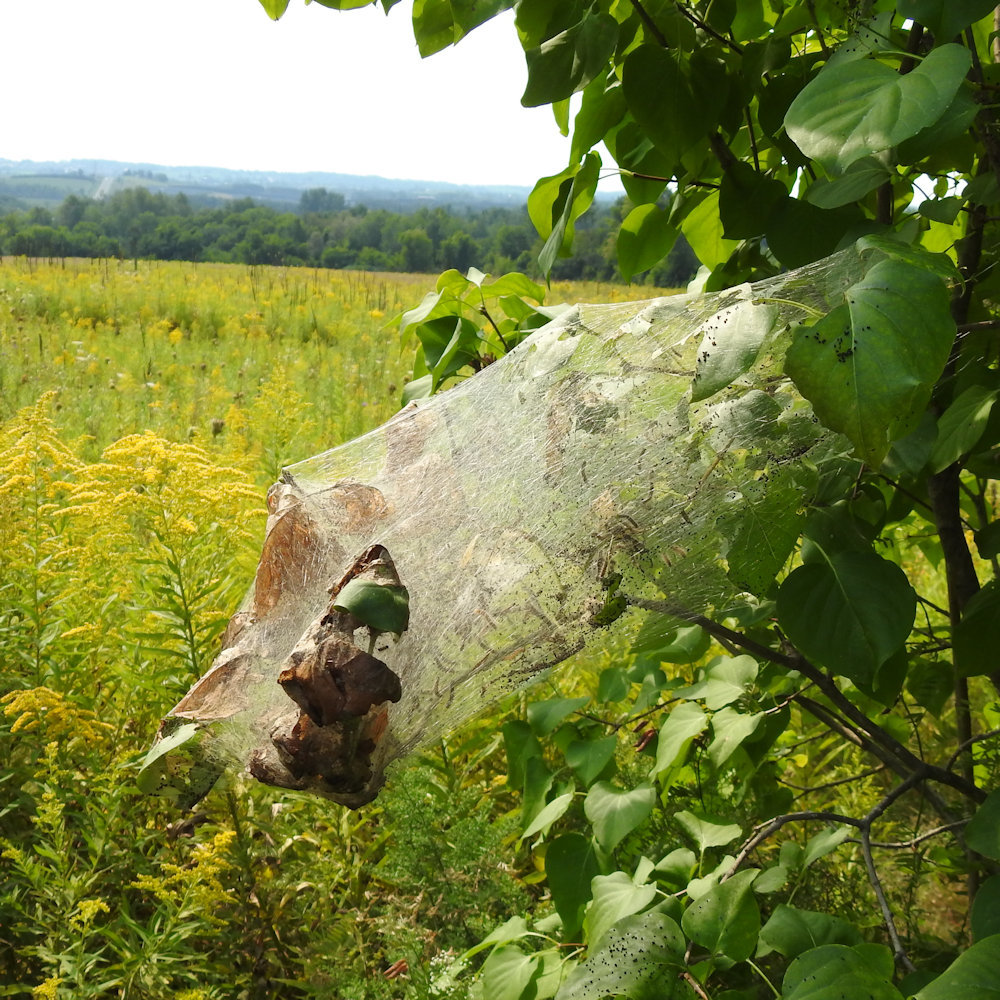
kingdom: Animalia
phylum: Arthropoda
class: Insecta
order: Lepidoptera
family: Erebidae
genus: Hyphantria
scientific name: Hyphantria cunea
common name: American white moth
